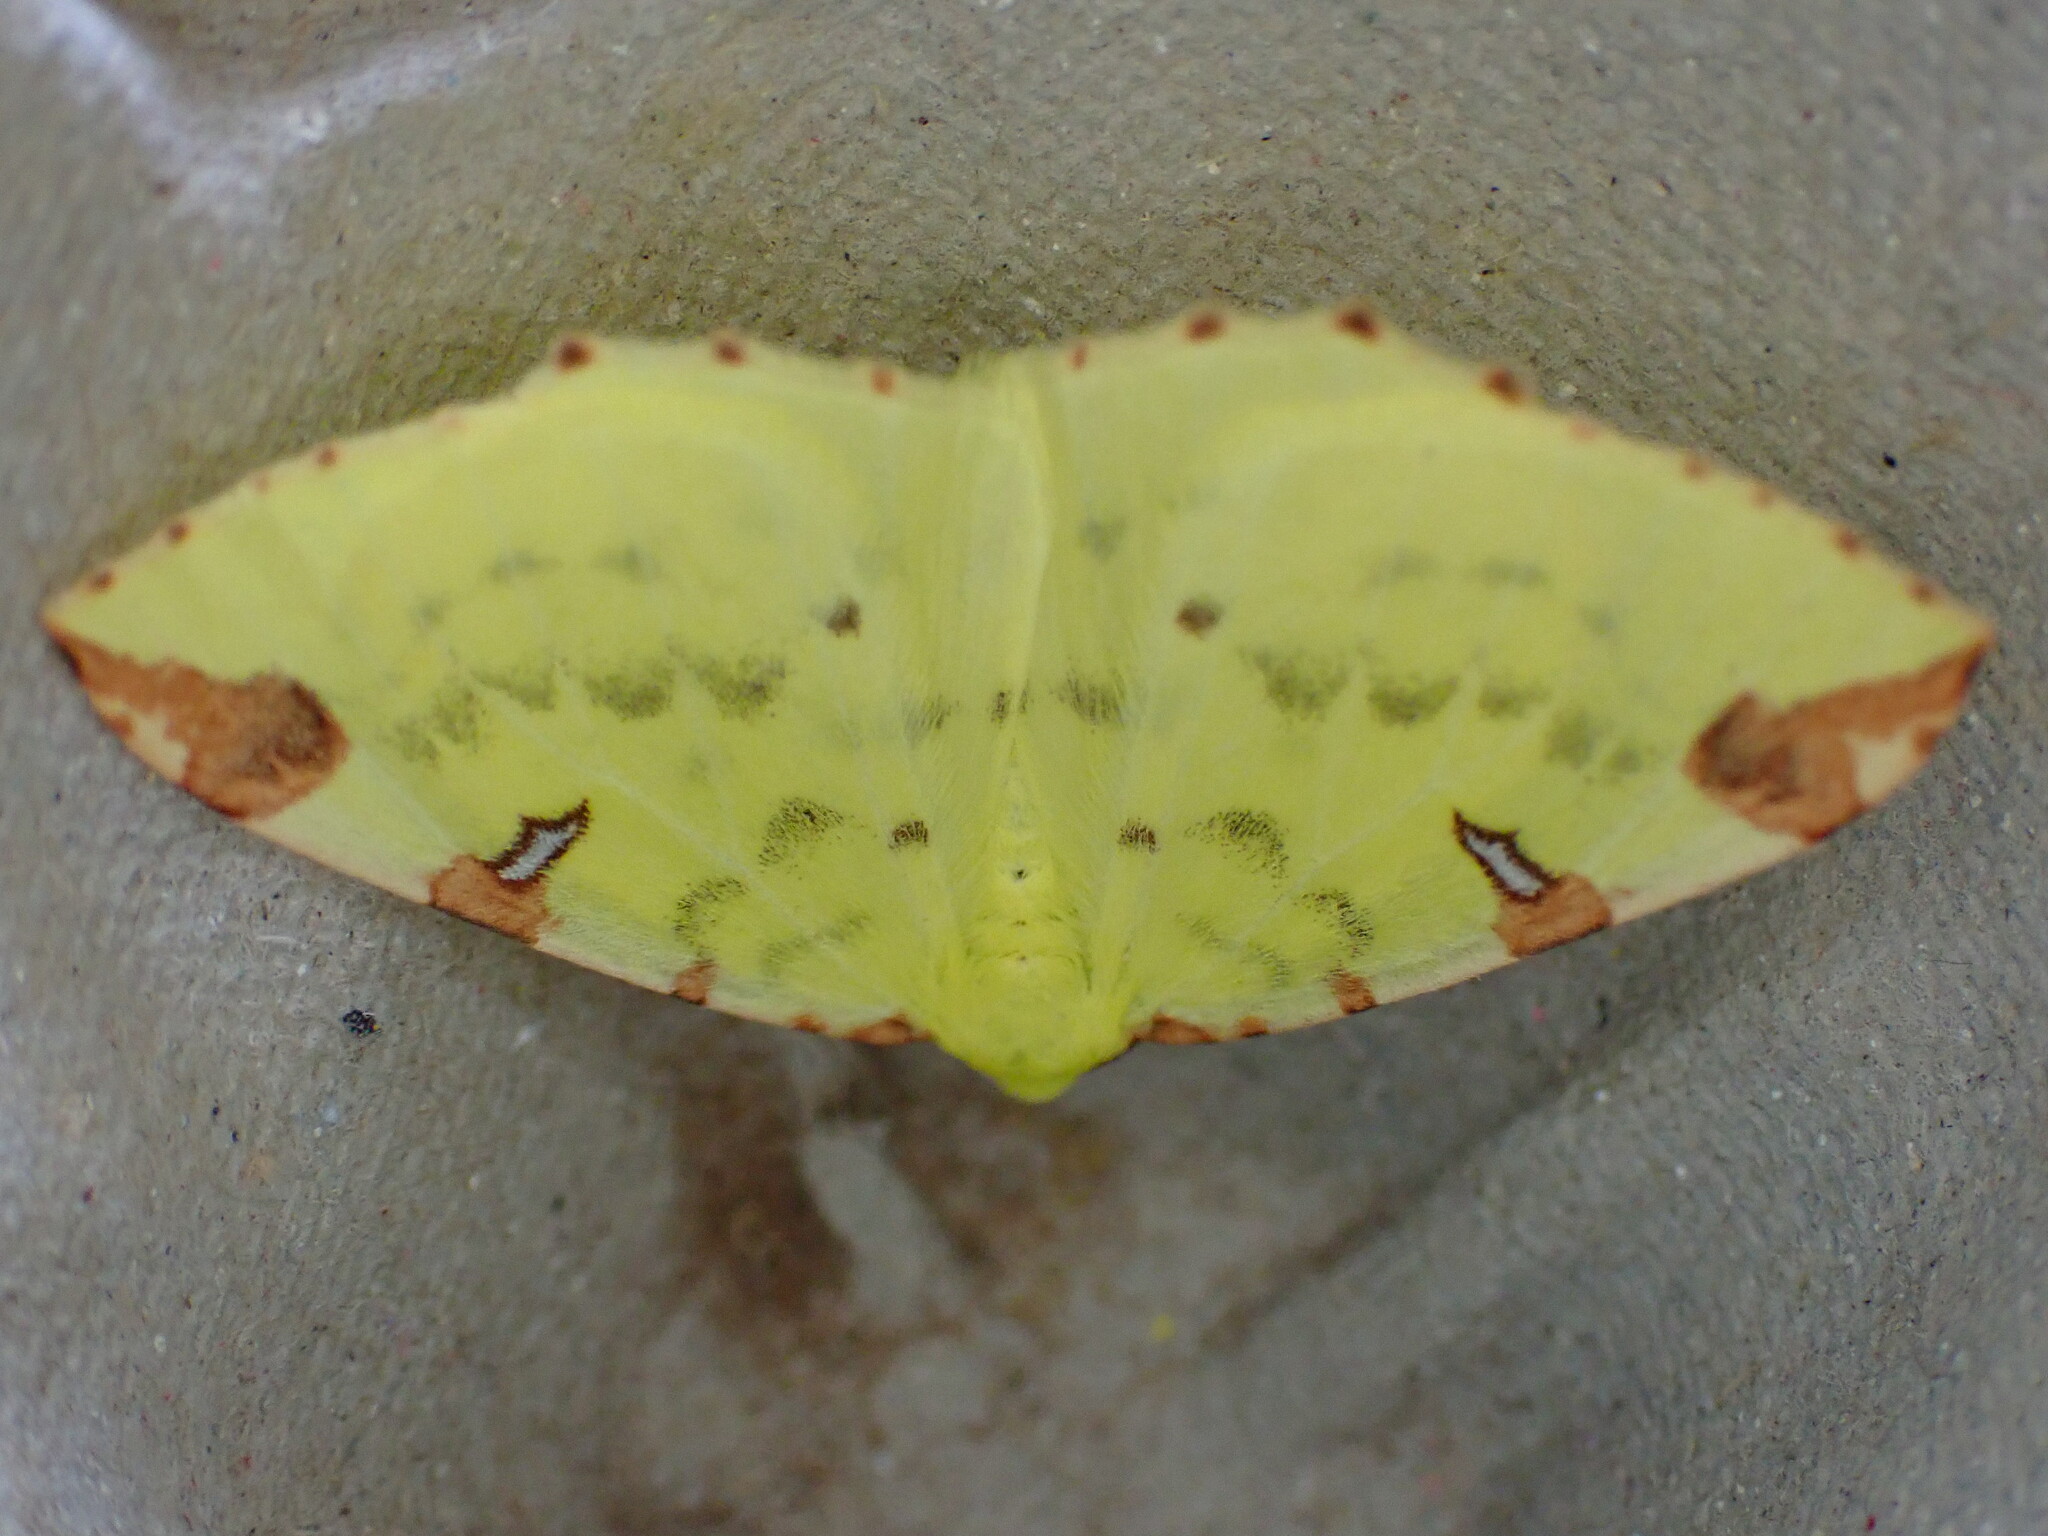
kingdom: Animalia
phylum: Arthropoda
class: Insecta
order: Lepidoptera
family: Geometridae
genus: Opisthograptis
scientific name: Opisthograptis luteolata
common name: Brimstone moth
